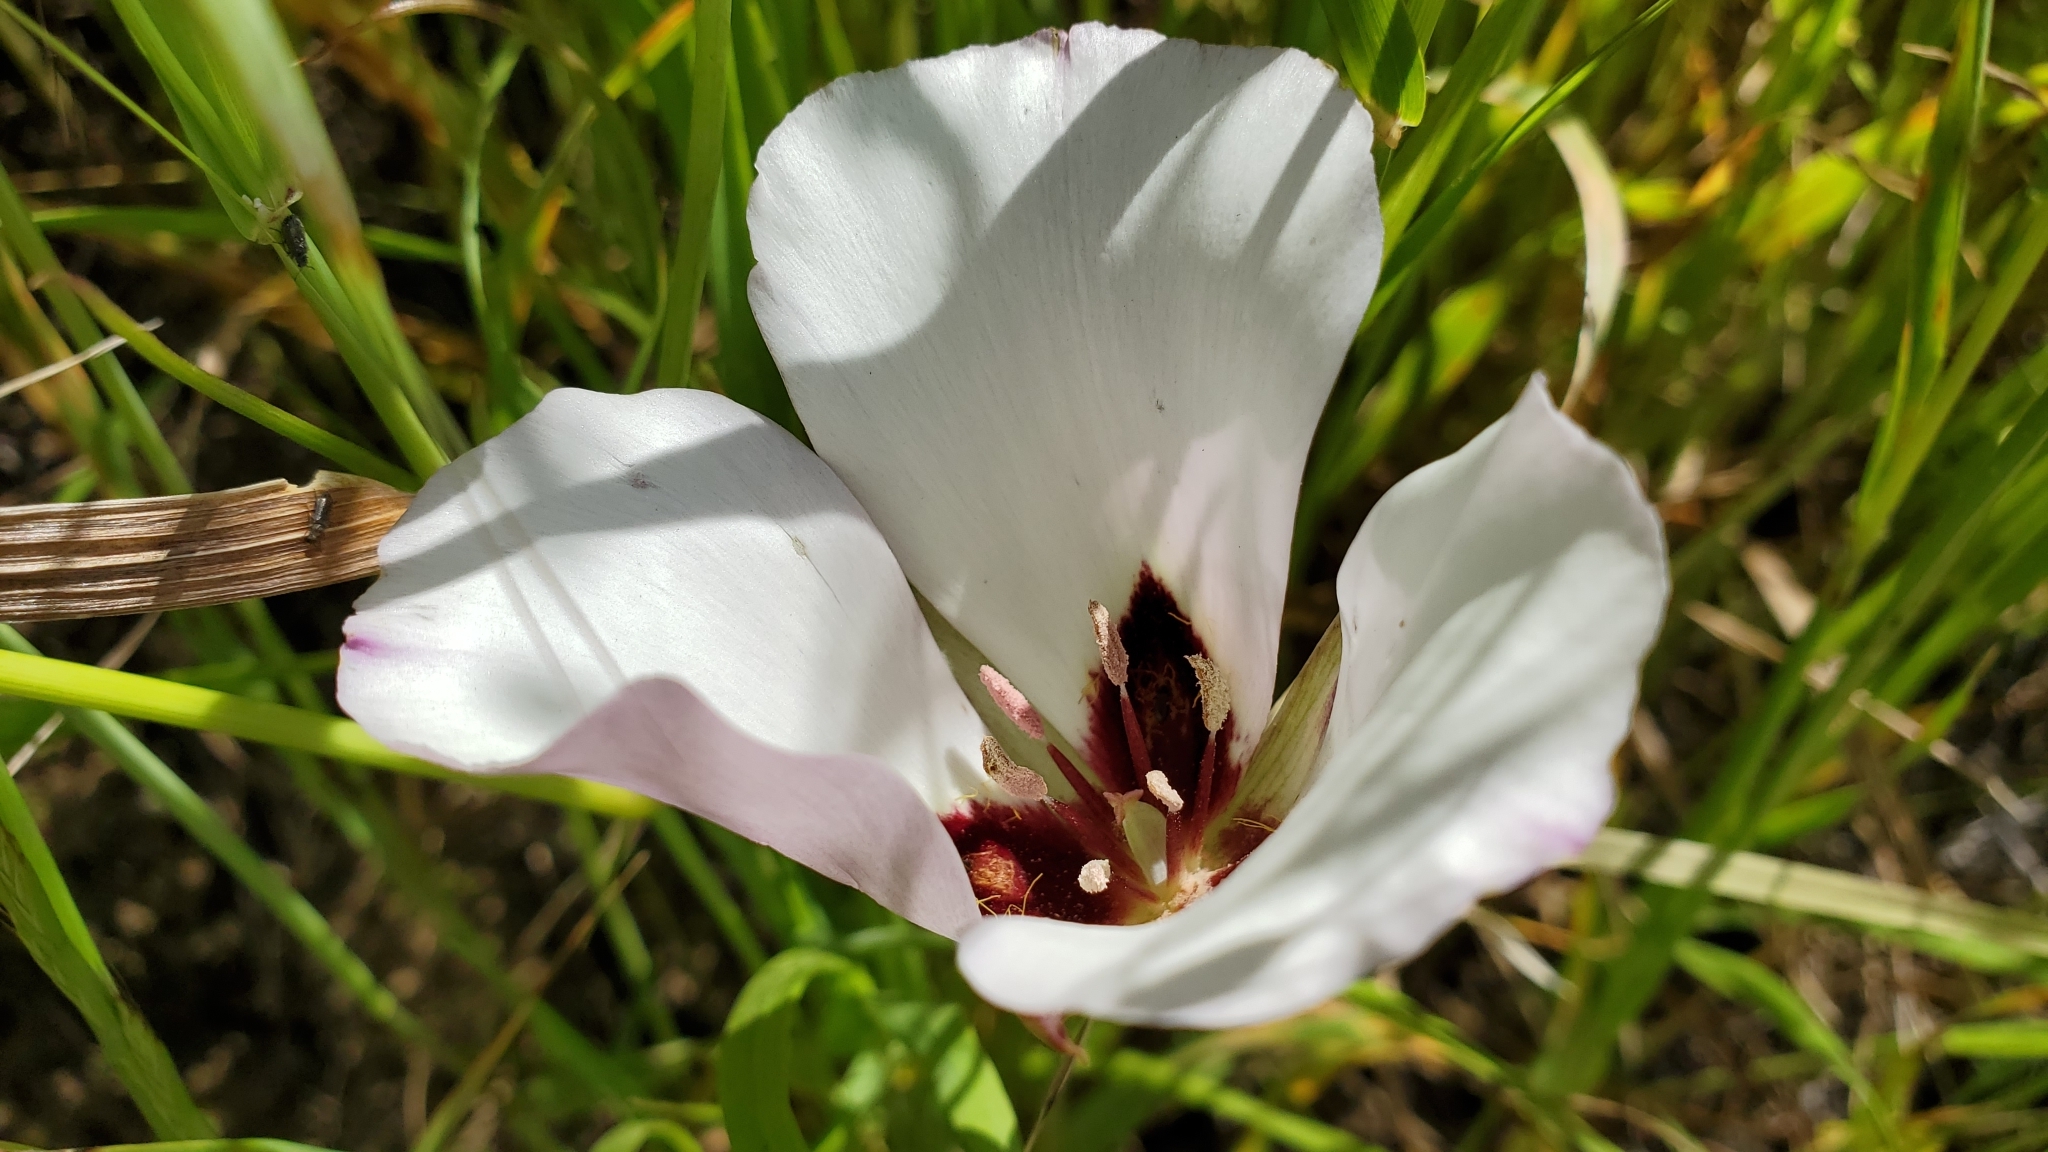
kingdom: Plantae
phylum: Tracheophyta
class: Liliopsida
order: Liliales
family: Liliaceae
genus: Calochortus
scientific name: Calochortus catalinae
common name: Catalina mariposa-lily
